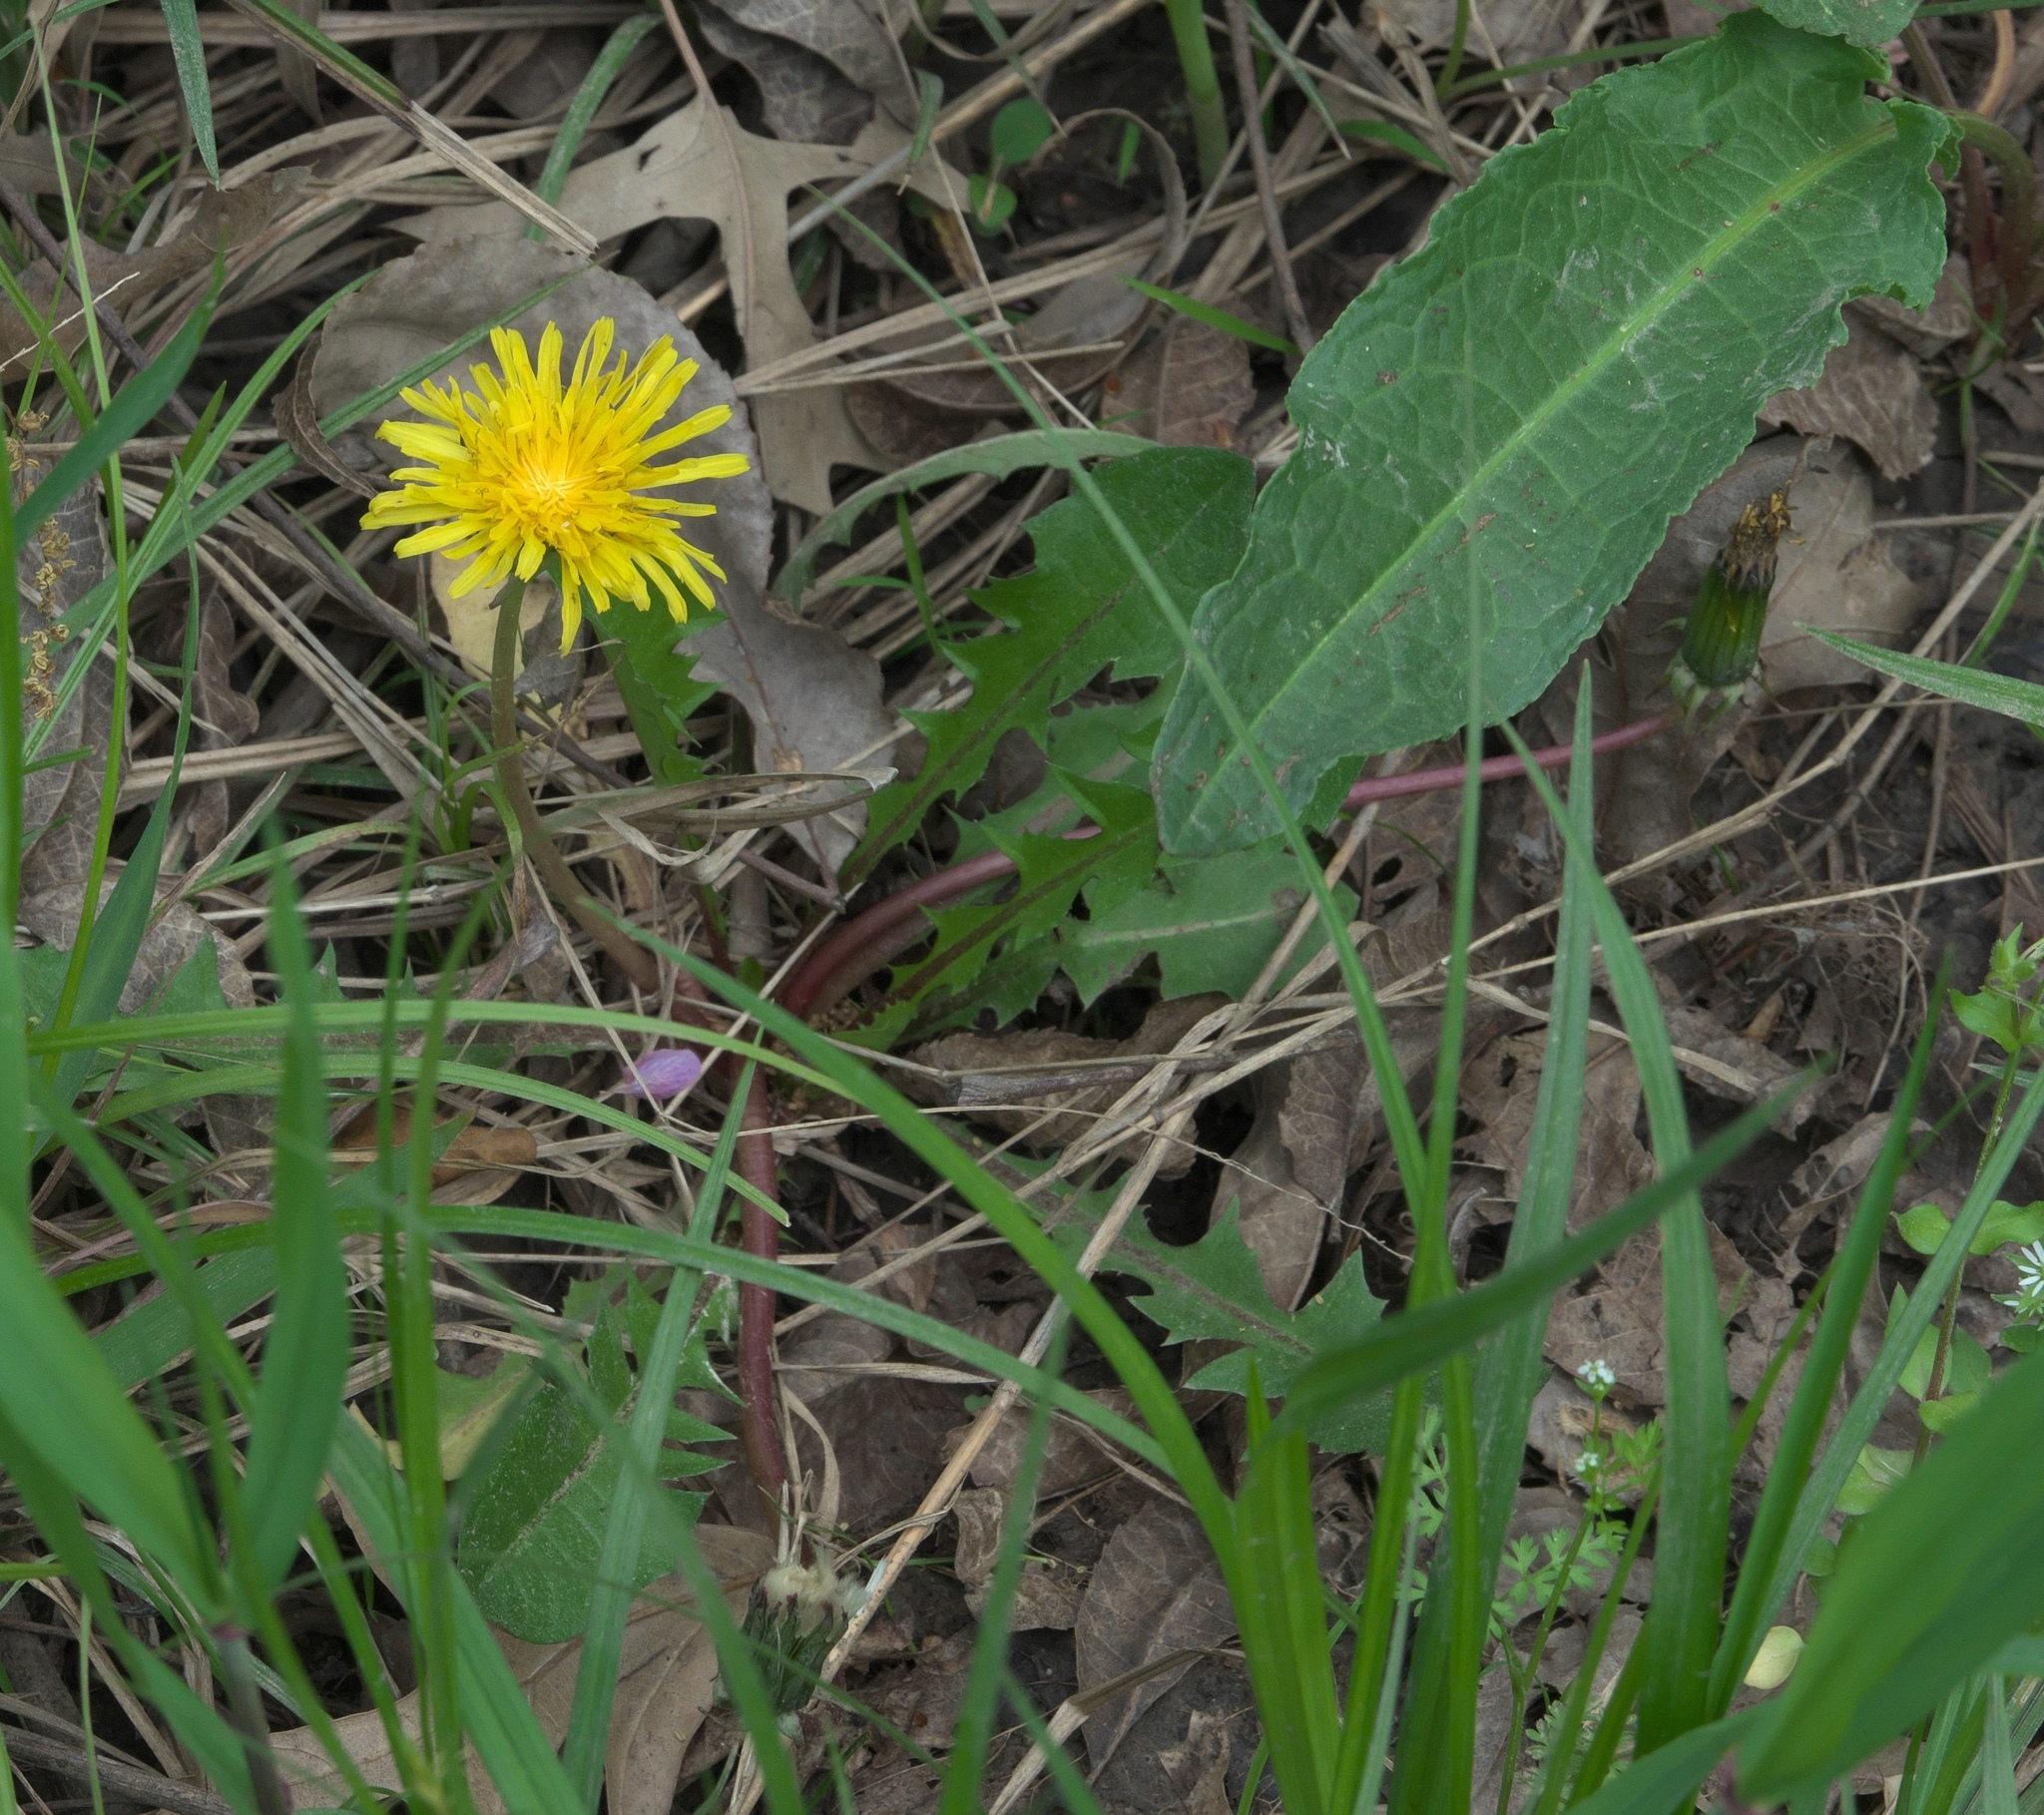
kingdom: Plantae
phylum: Tracheophyta
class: Magnoliopsida
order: Asterales
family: Asteraceae
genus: Taraxacum
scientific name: Taraxacum
